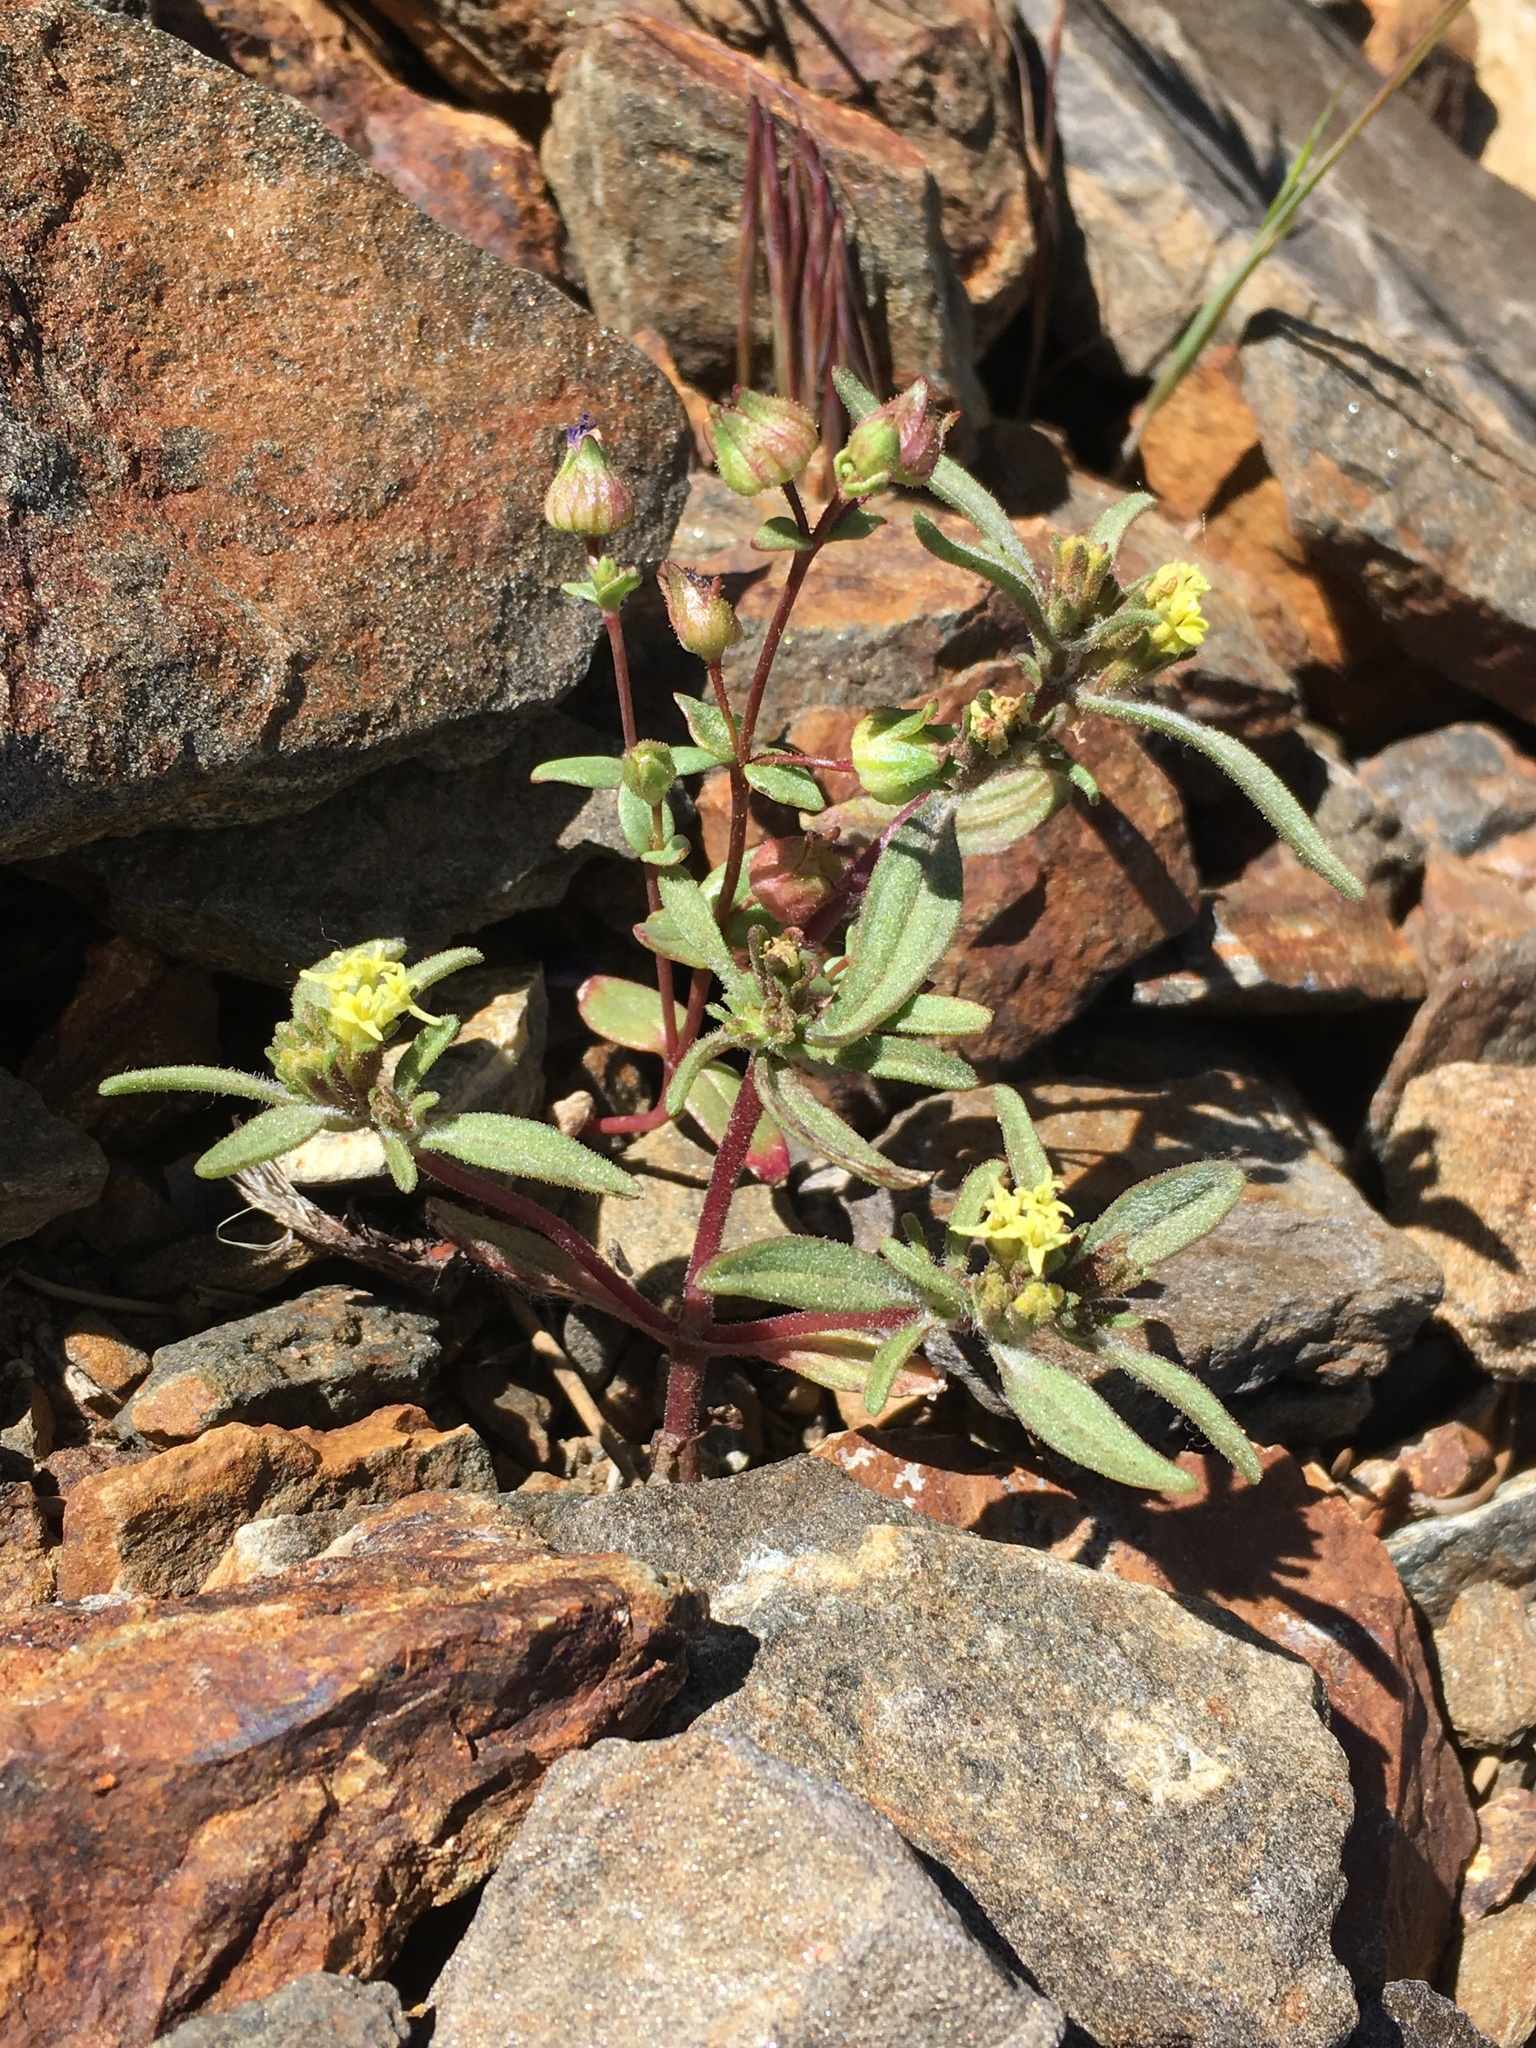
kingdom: Plantae
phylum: Tracheophyta
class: Magnoliopsida
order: Lamiales
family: Plantaginaceae
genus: Collinsia
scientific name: Collinsia callosa
